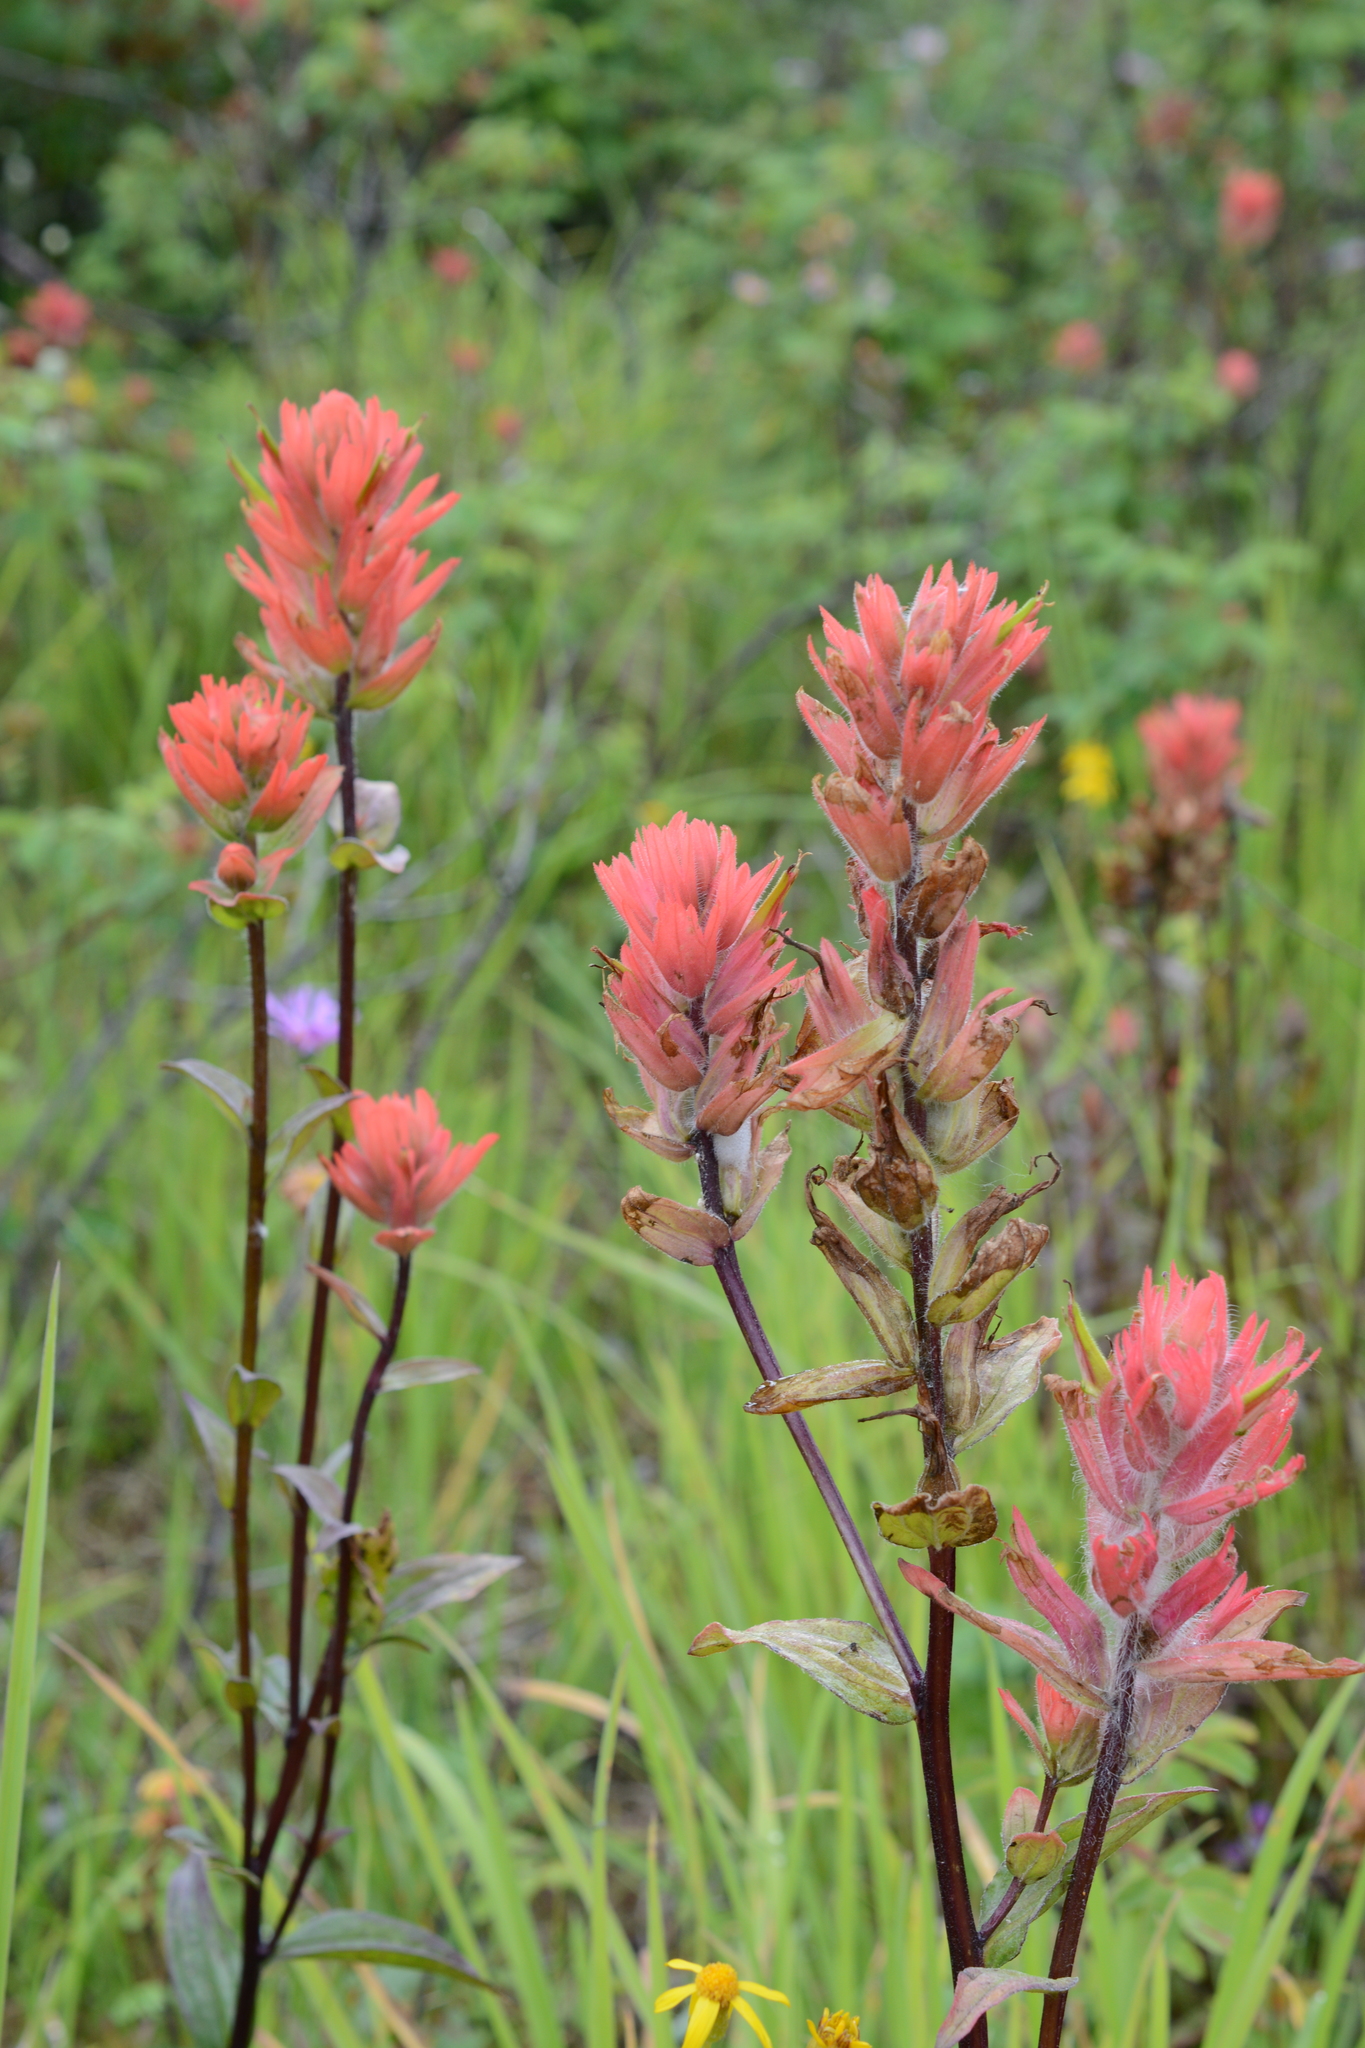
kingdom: Plantae
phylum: Tracheophyta
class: Magnoliopsida
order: Lamiales
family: Orobanchaceae
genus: Castilleja
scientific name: Castilleja miniata
